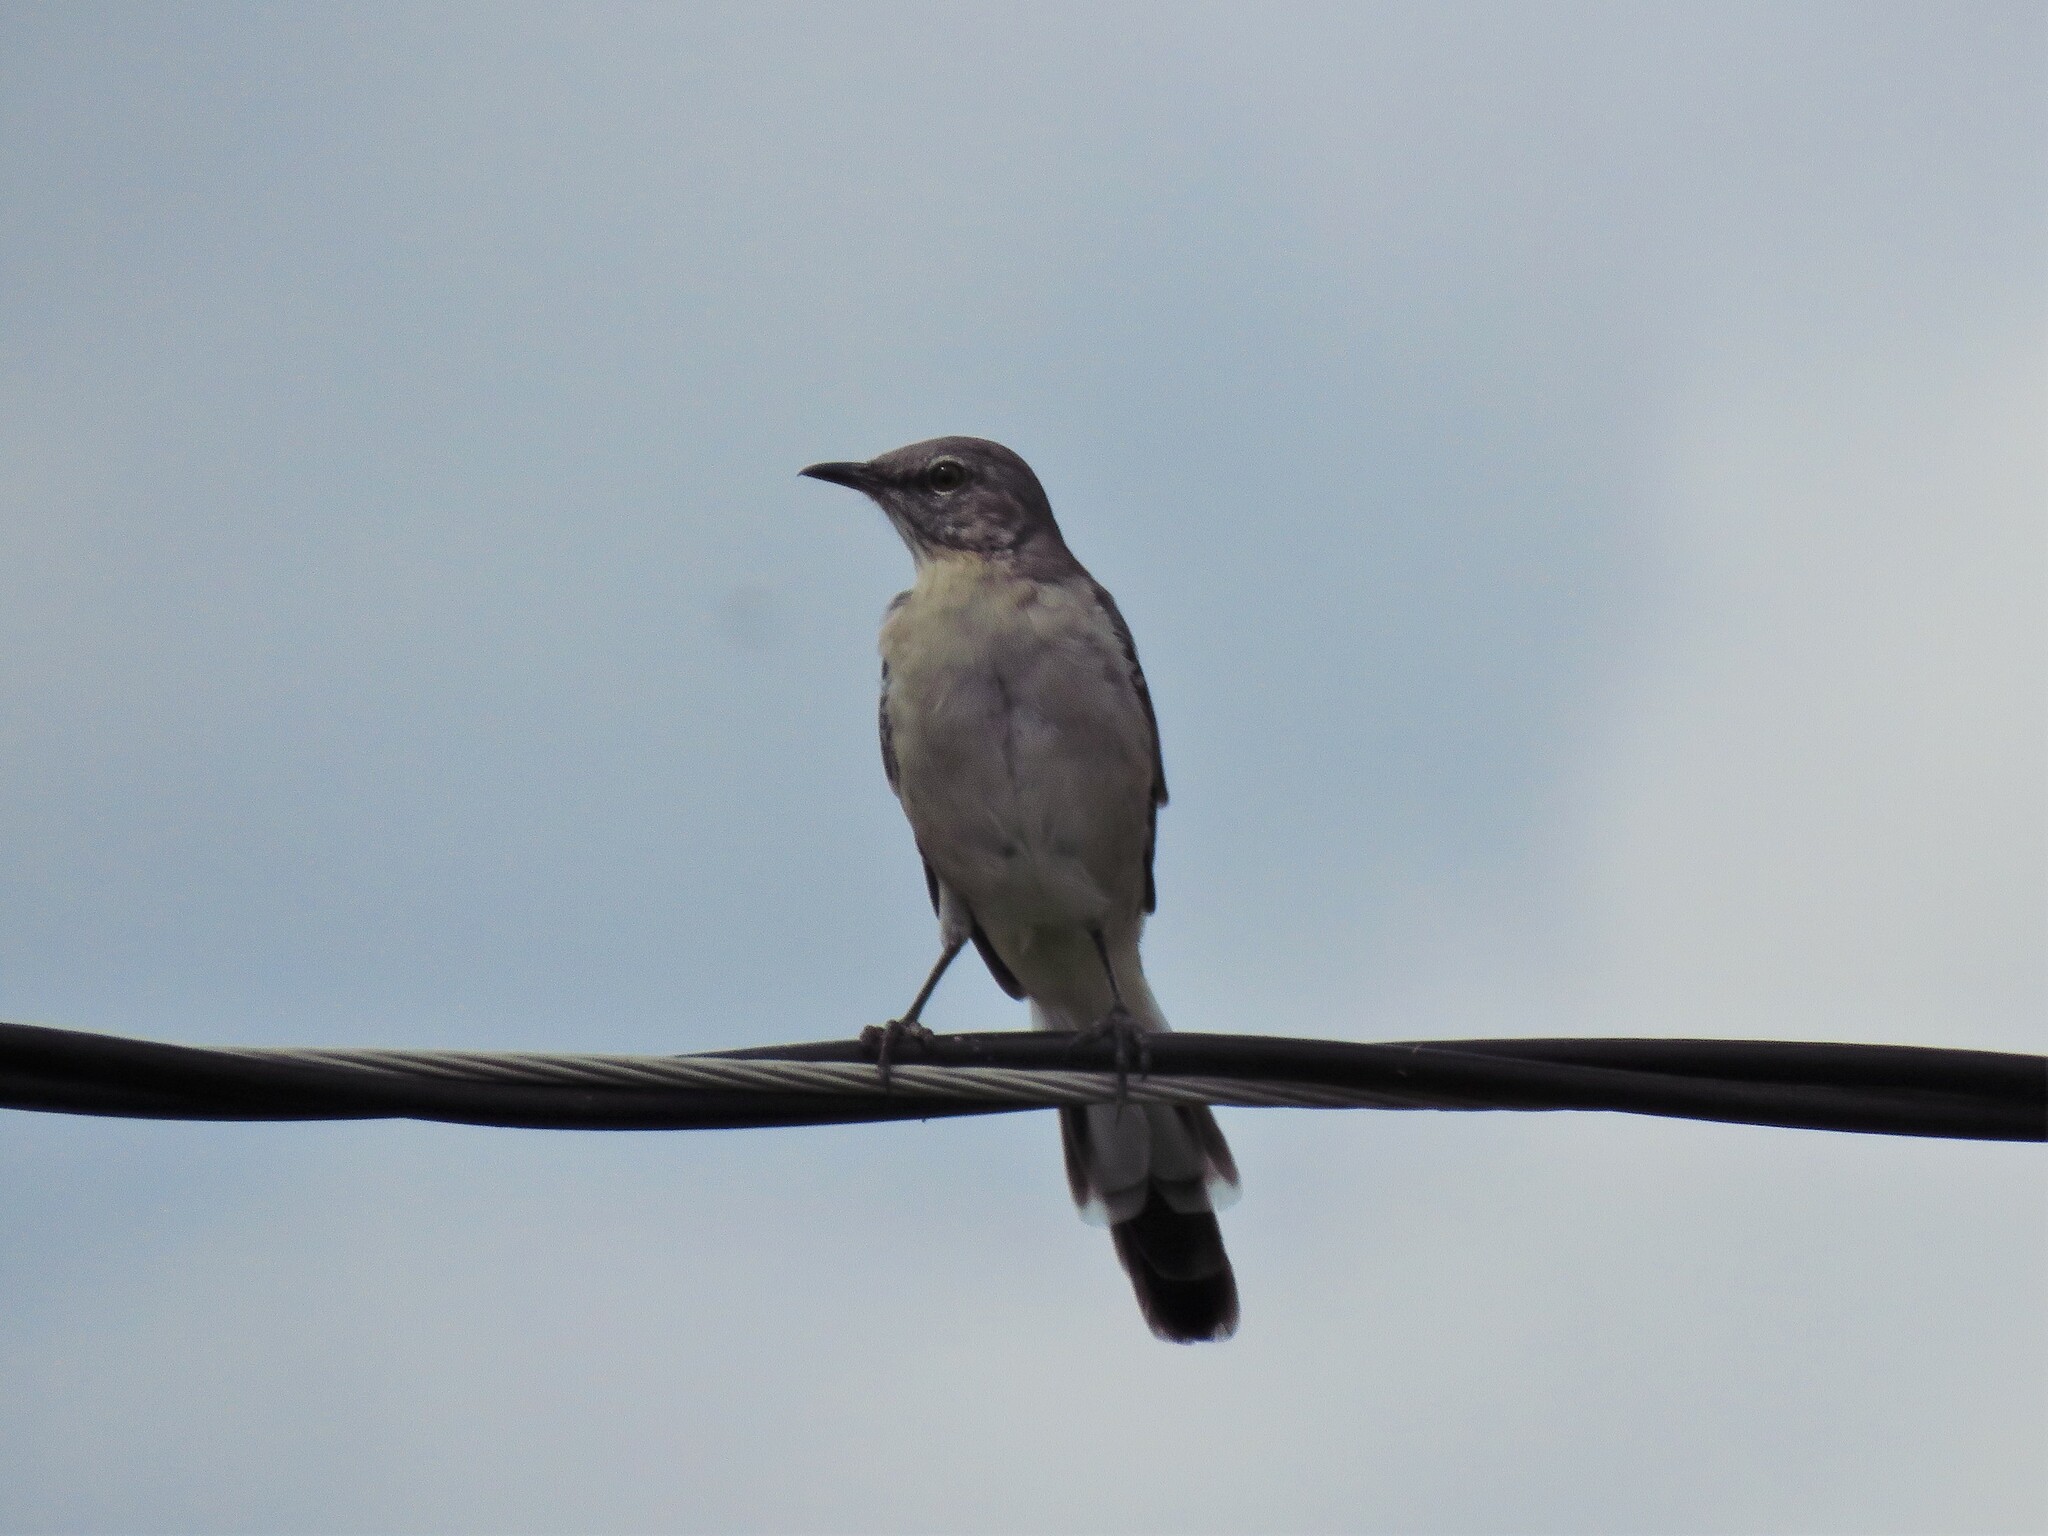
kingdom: Animalia
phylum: Chordata
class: Aves
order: Passeriformes
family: Mimidae
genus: Mimus
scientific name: Mimus polyglottos
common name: Northern mockingbird
